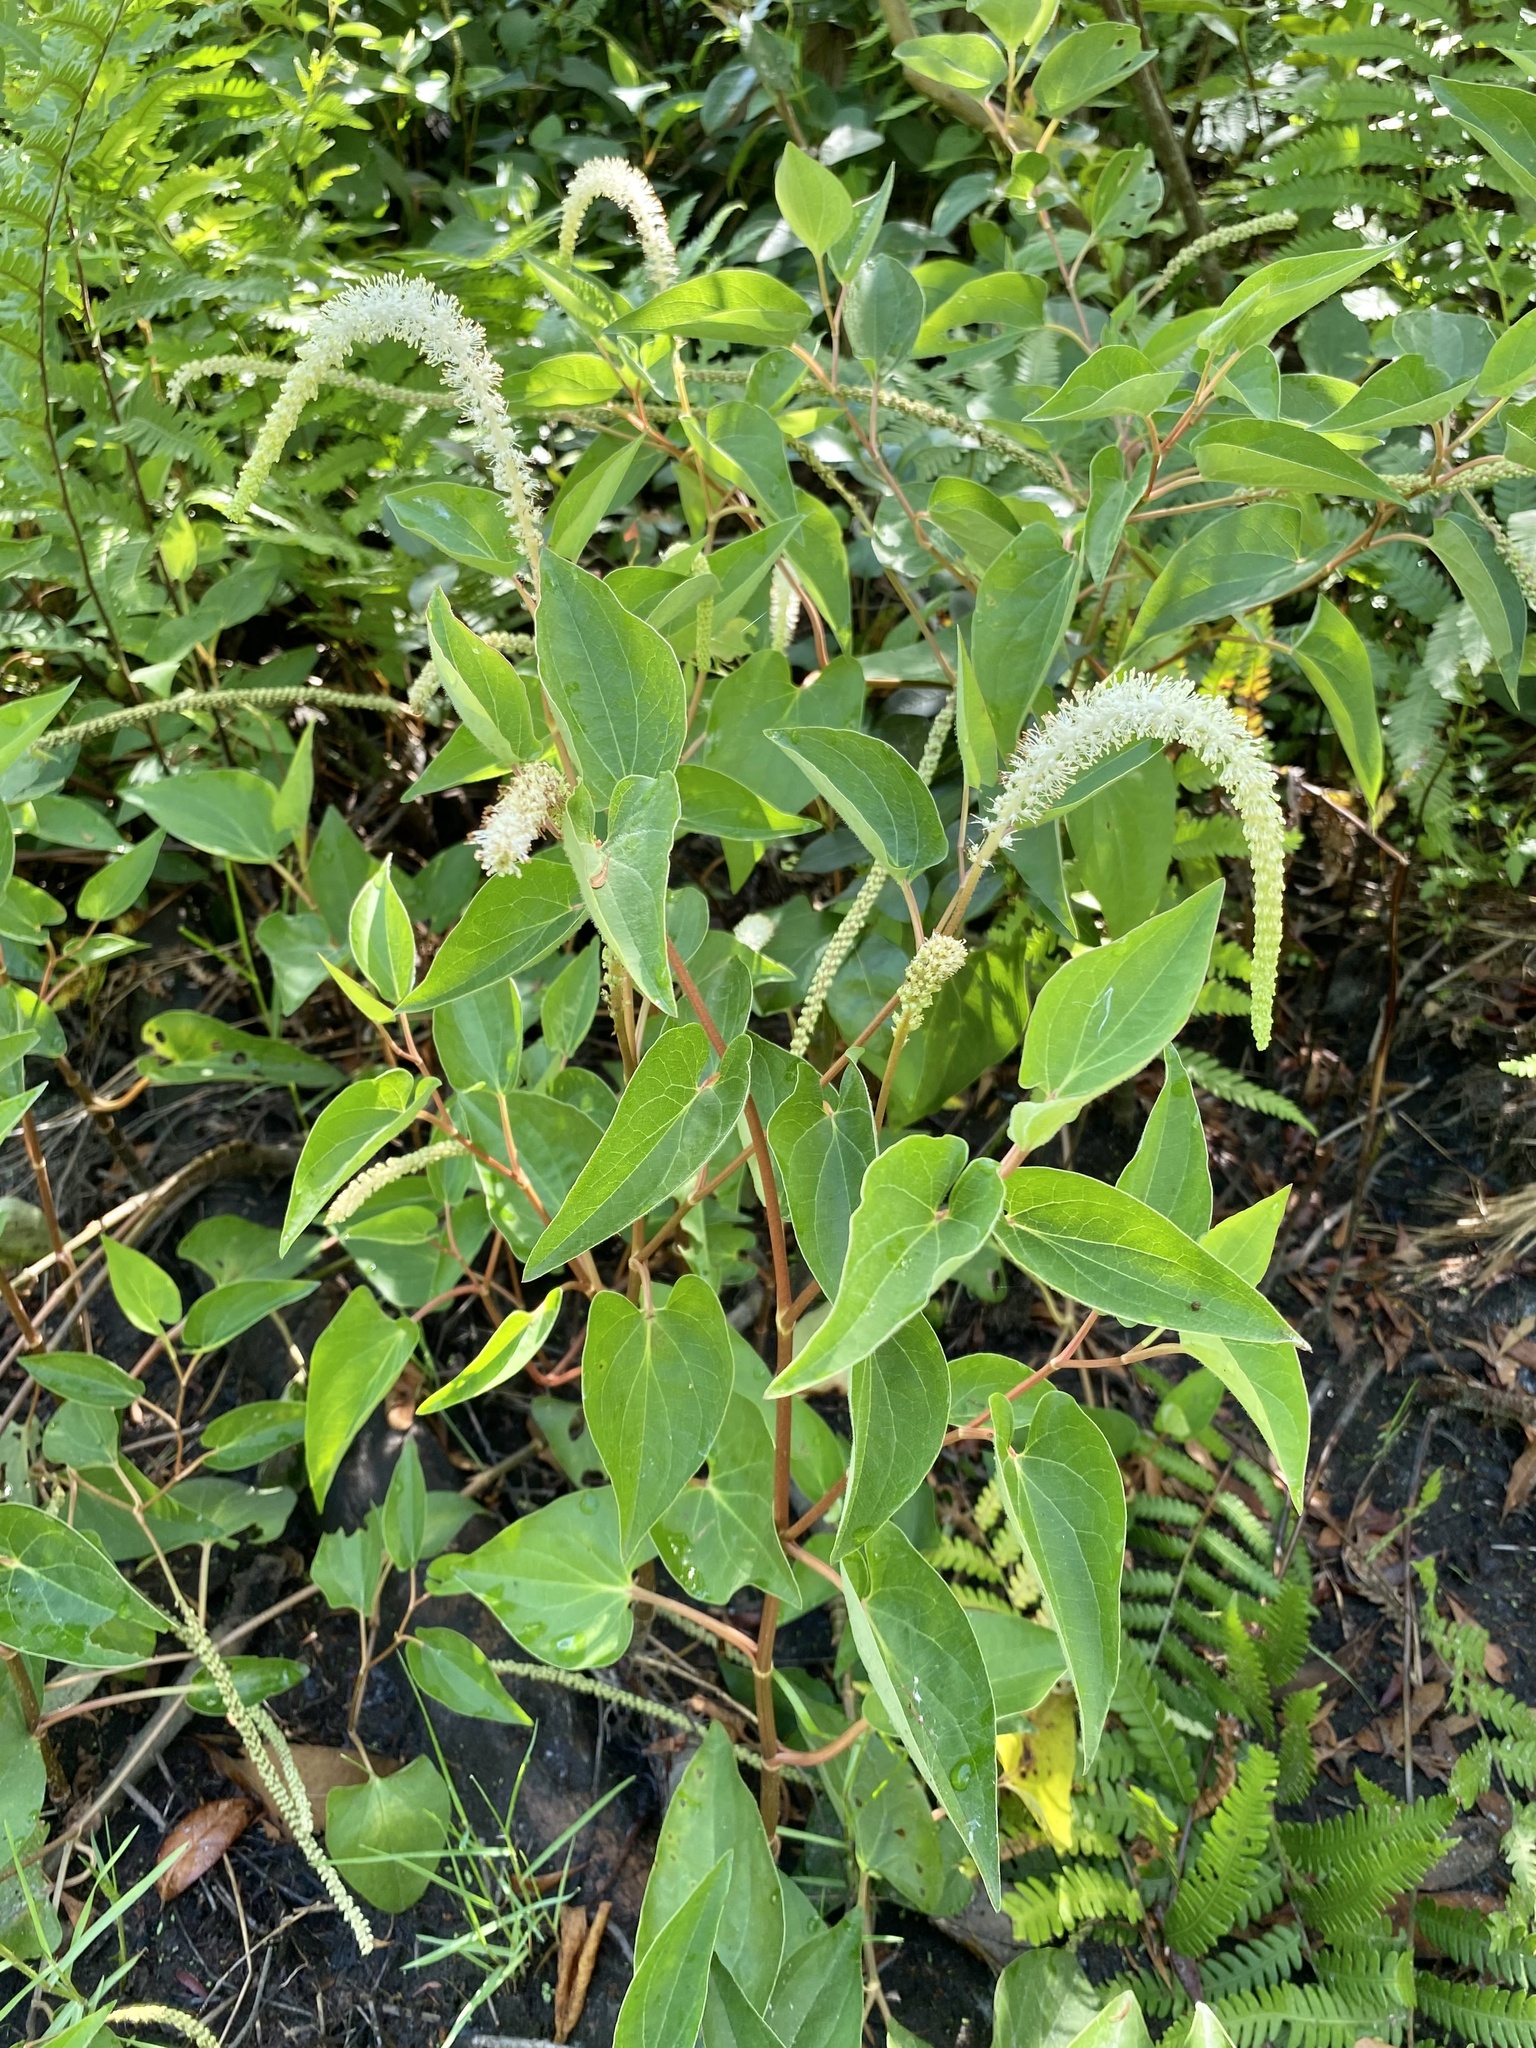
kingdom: Plantae
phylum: Tracheophyta
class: Magnoliopsida
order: Piperales
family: Saururaceae
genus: Saururus
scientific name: Saururus cernuus
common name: Lizard's-tail
